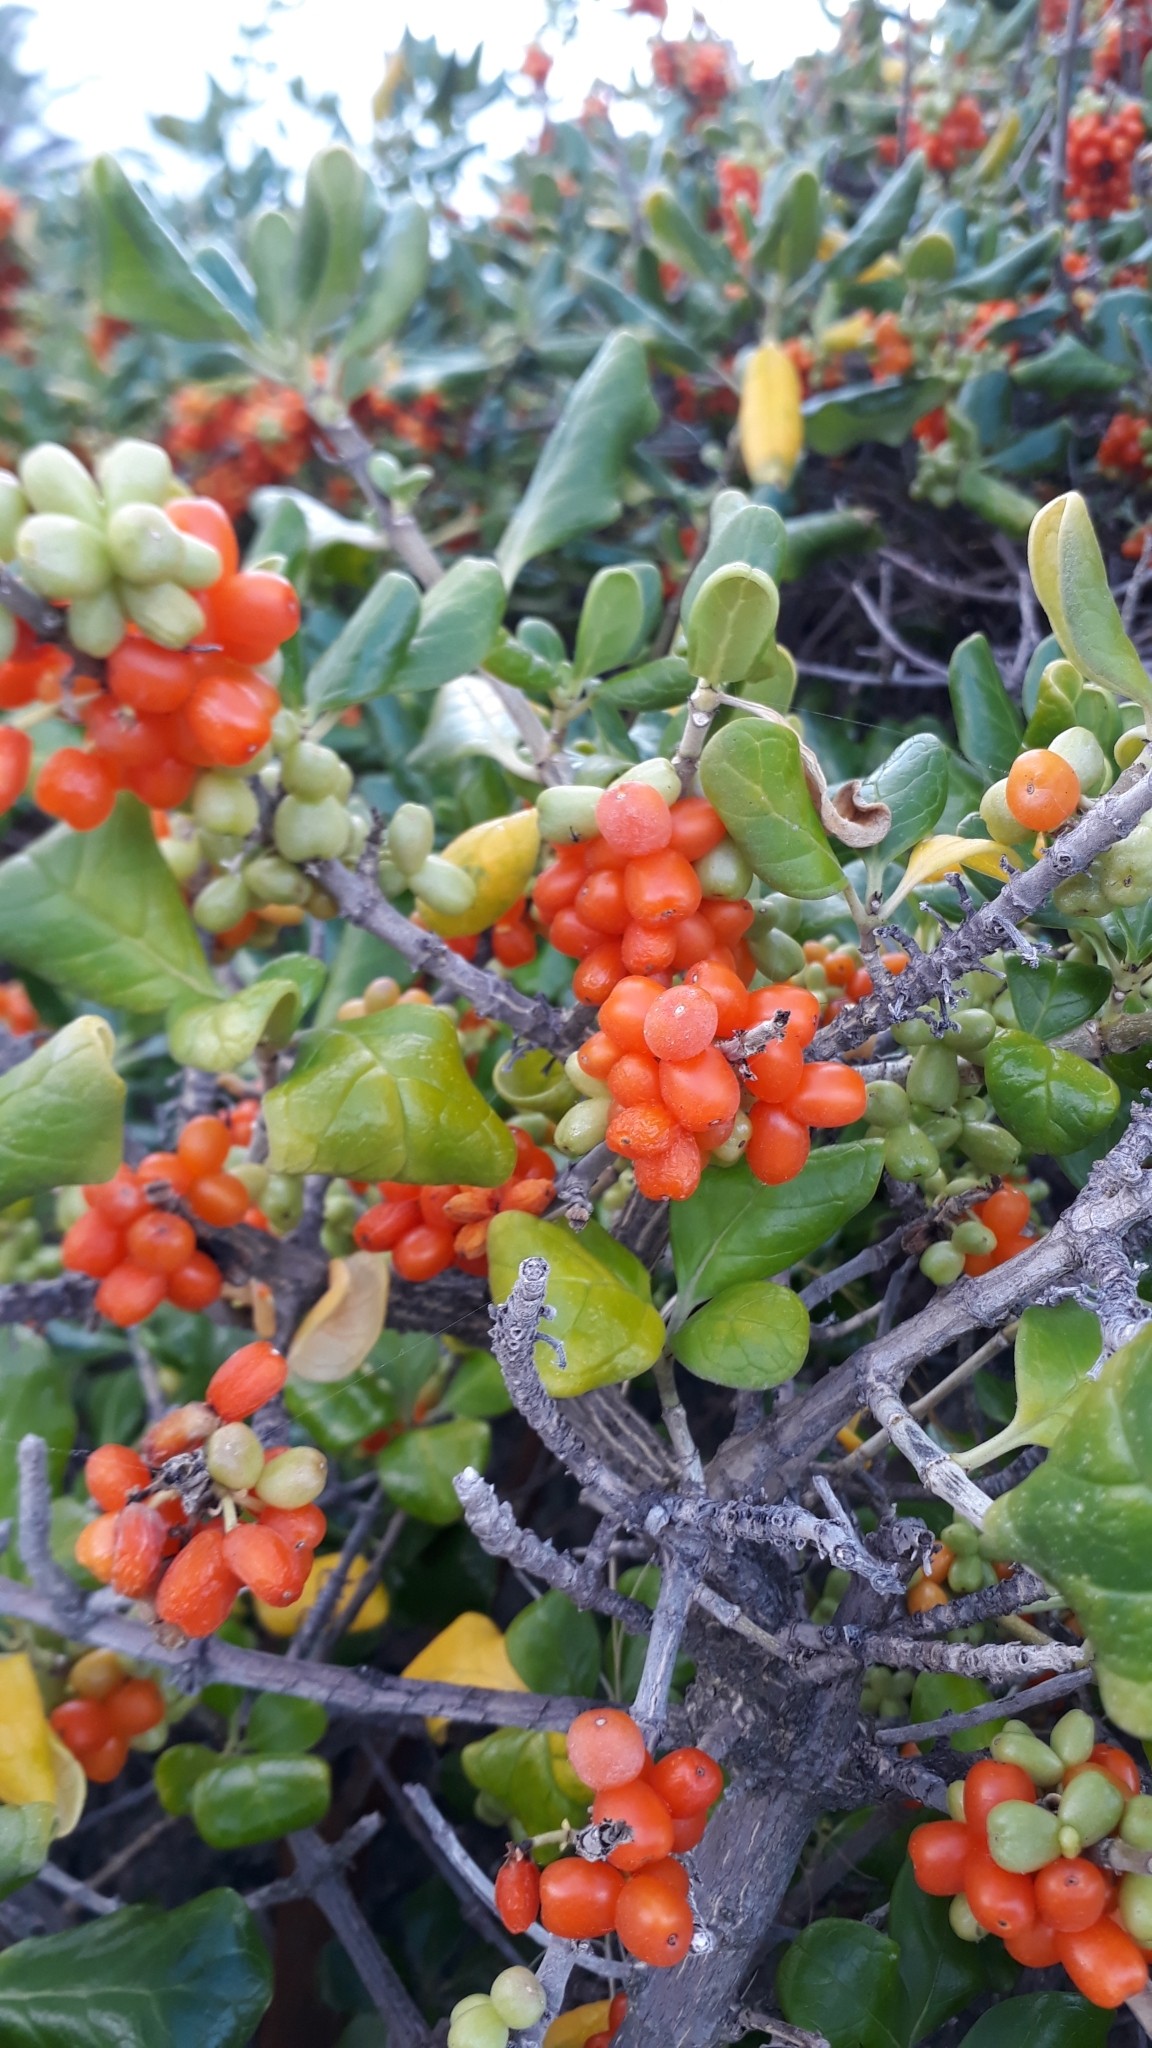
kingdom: Plantae
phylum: Tracheophyta
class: Magnoliopsida
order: Gentianales
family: Rubiaceae
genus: Coprosma
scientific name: Coprosma repens
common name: Tree bedstraw
